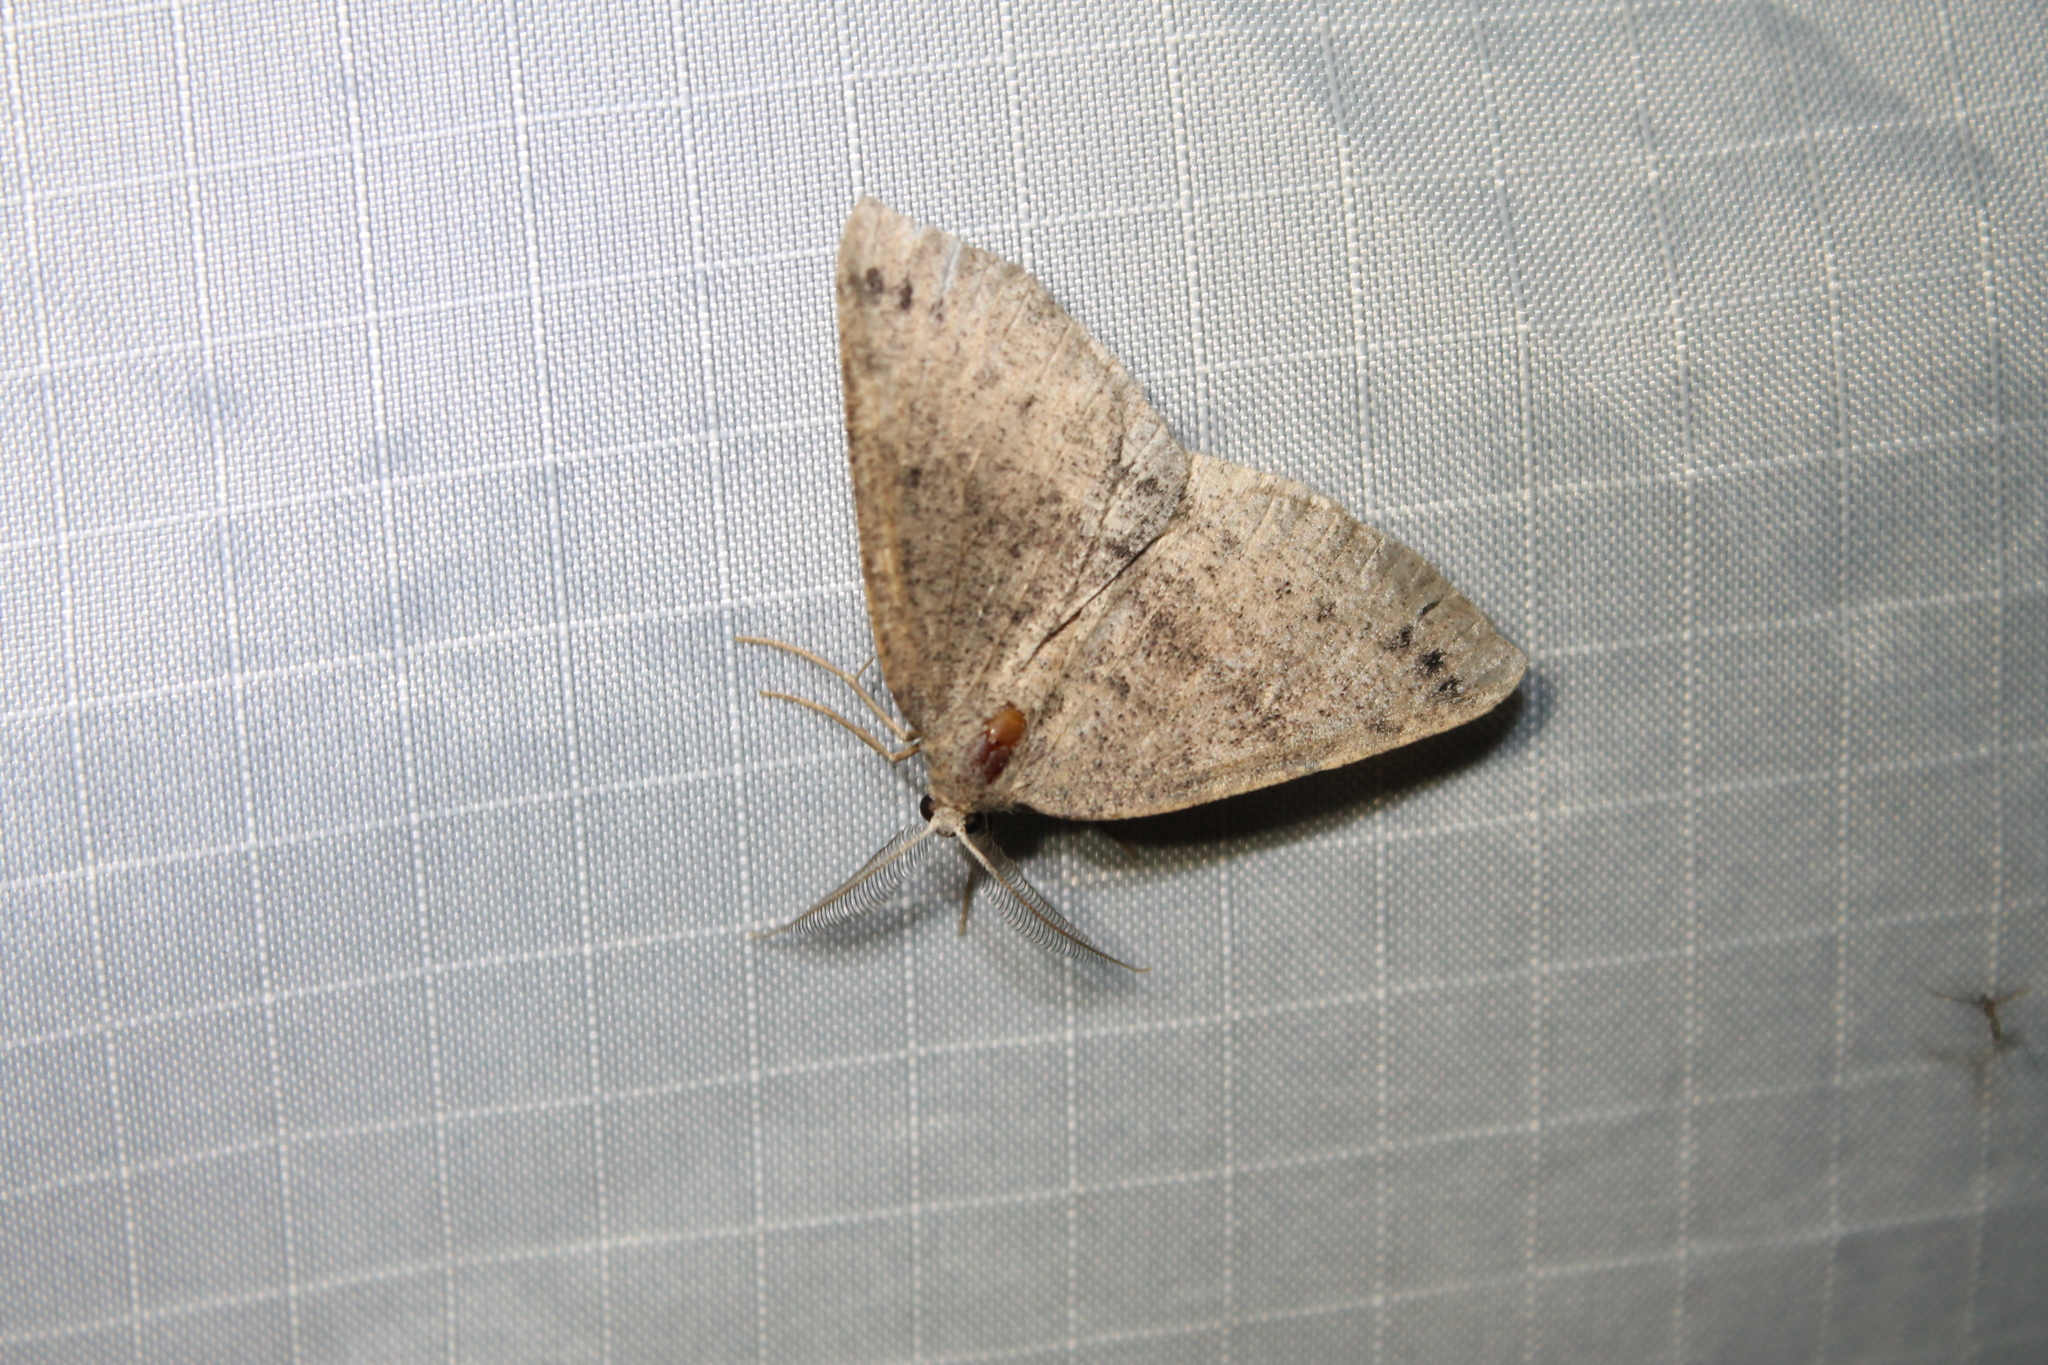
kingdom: Animalia
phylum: Arthropoda
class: Insecta
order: Lepidoptera
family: Geometridae
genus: Drepanulatrix
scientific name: Drepanulatrix hulstii
